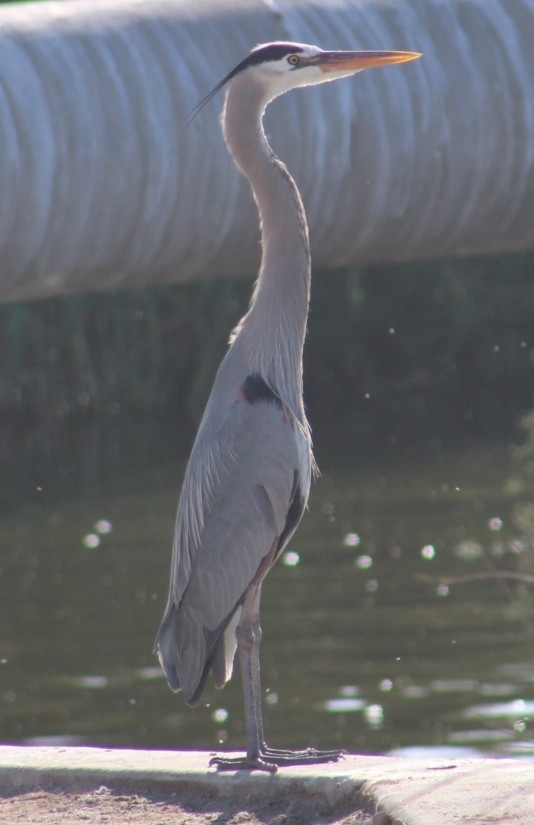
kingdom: Animalia
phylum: Chordata
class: Aves
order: Pelecaniformes
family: Ardeidae
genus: Ardea
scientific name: Ardea herodias
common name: Great blue heron
